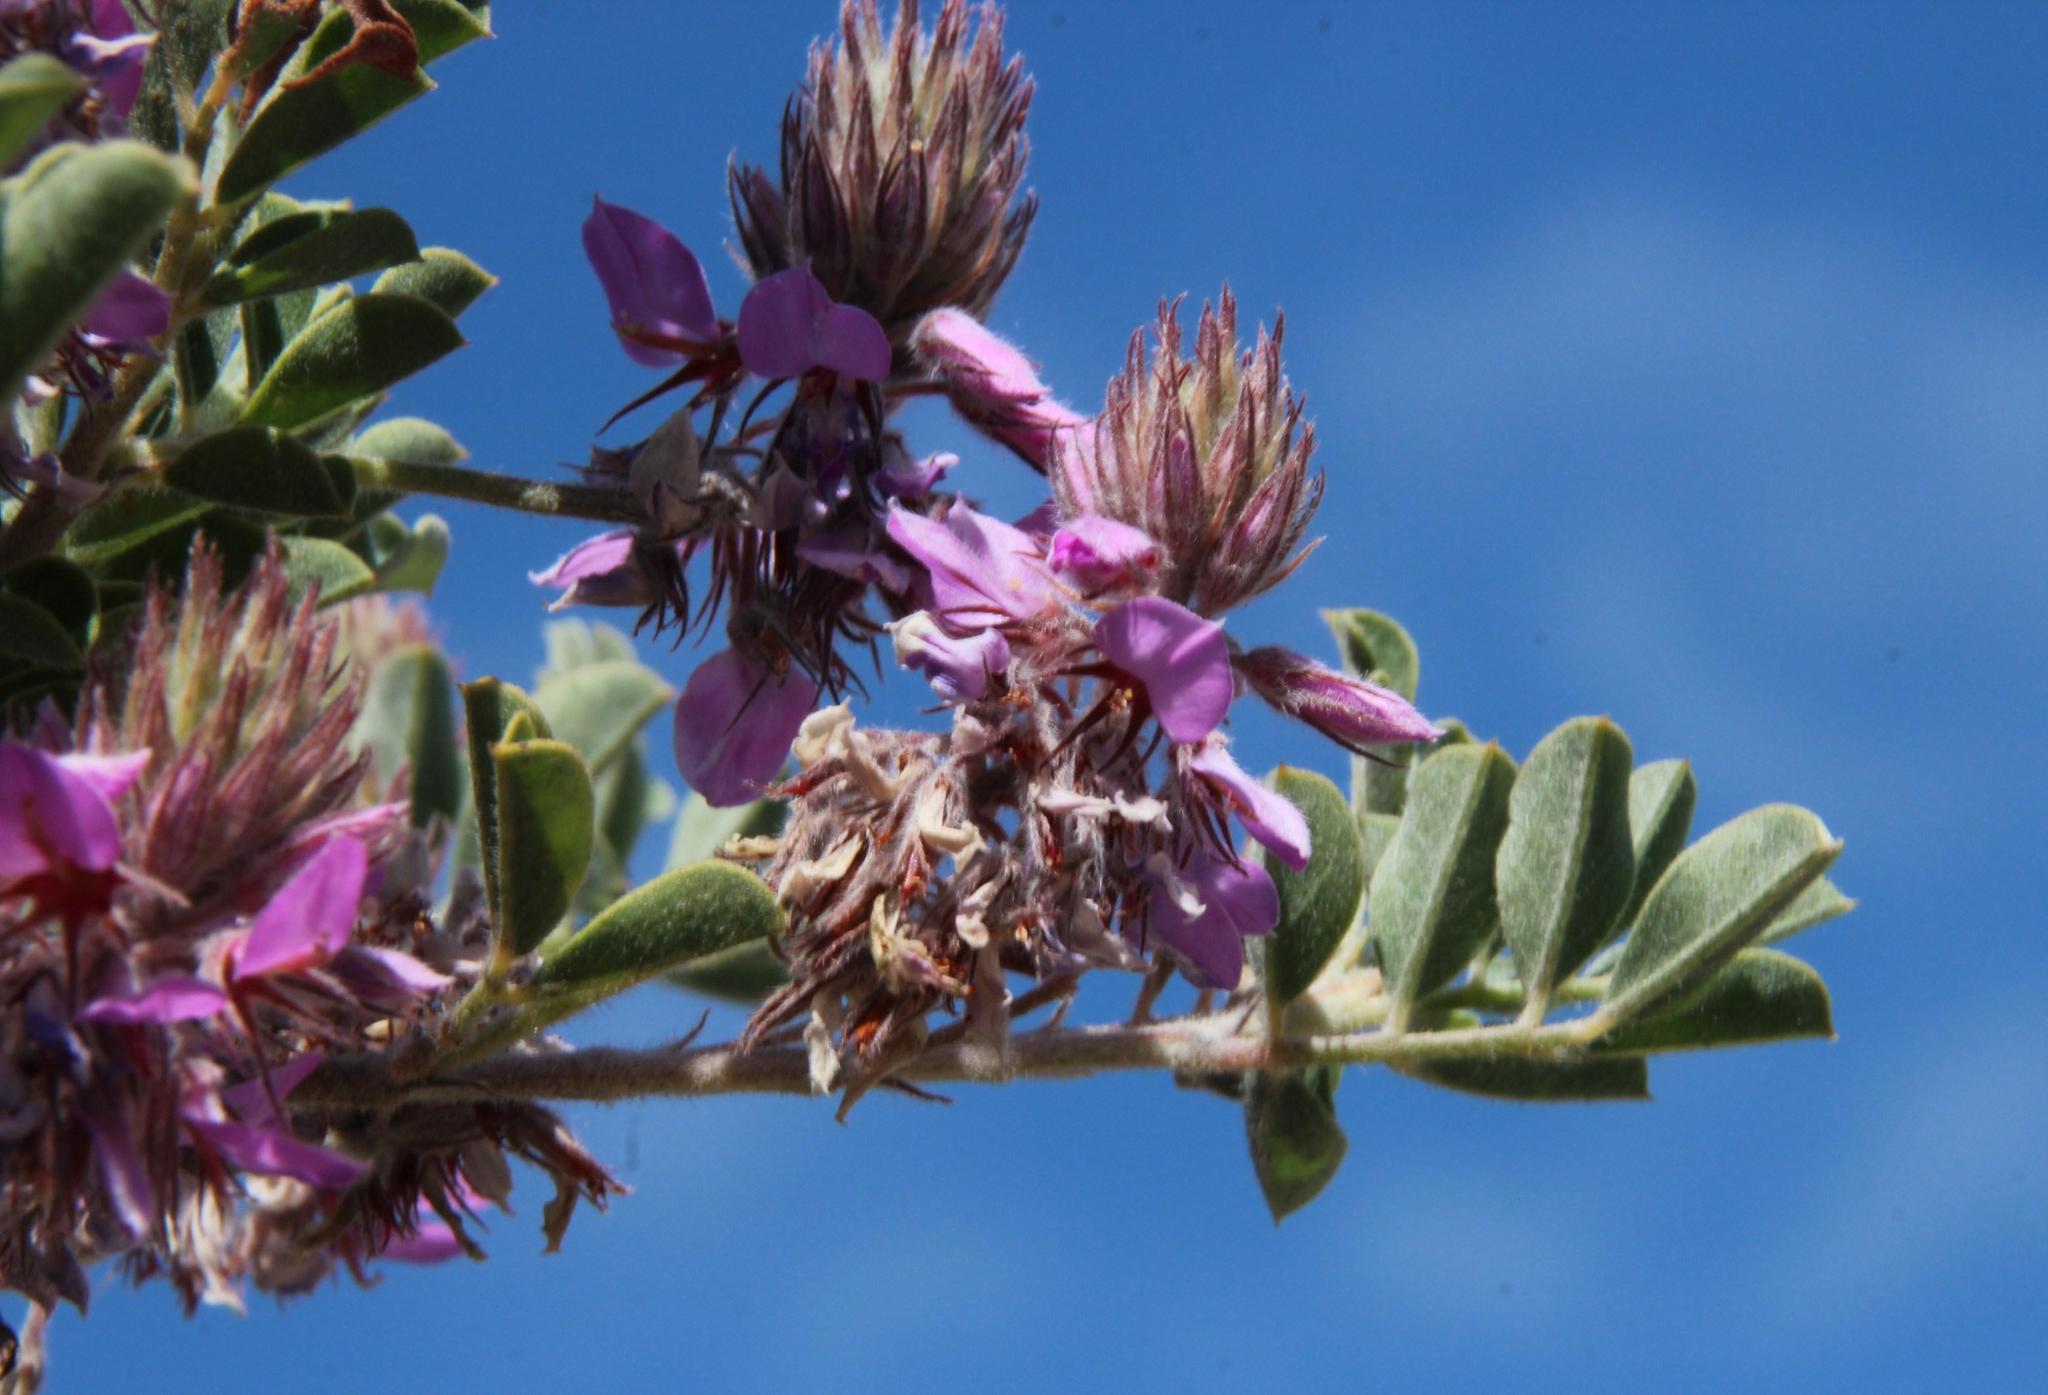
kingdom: Plantae
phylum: Tracheophyta
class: Magnoliopsida
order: Fabales
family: Fabaceae
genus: Indigofera
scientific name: Indigofera superba
